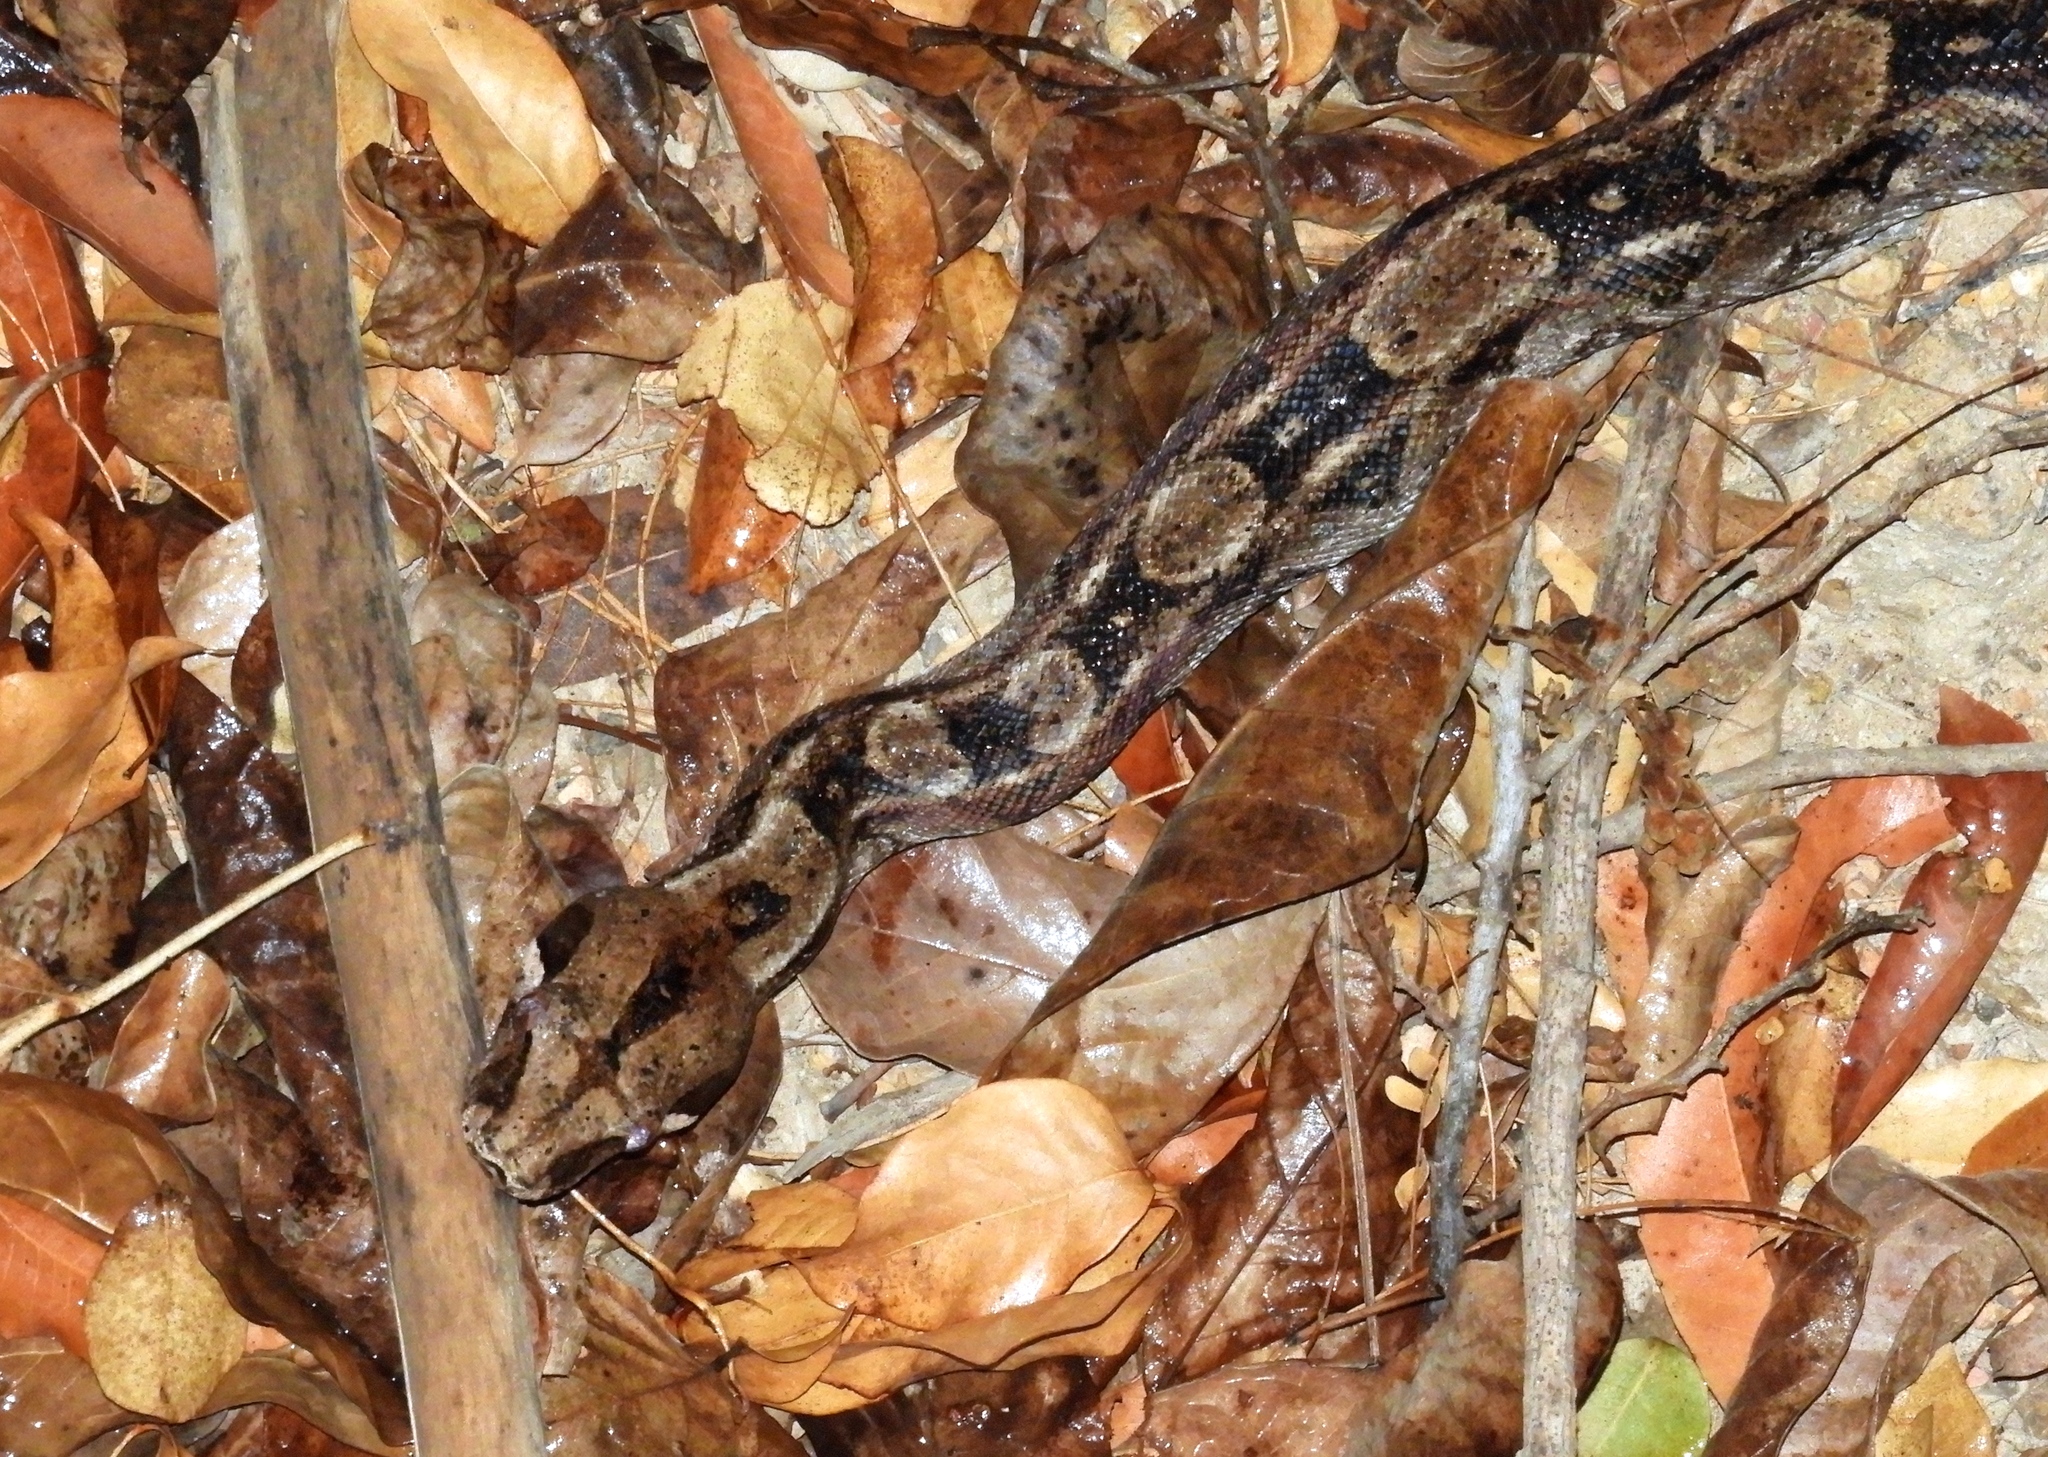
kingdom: Animalia
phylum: Chordata
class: Squamata
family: Boidae
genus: Boa
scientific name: Boa
